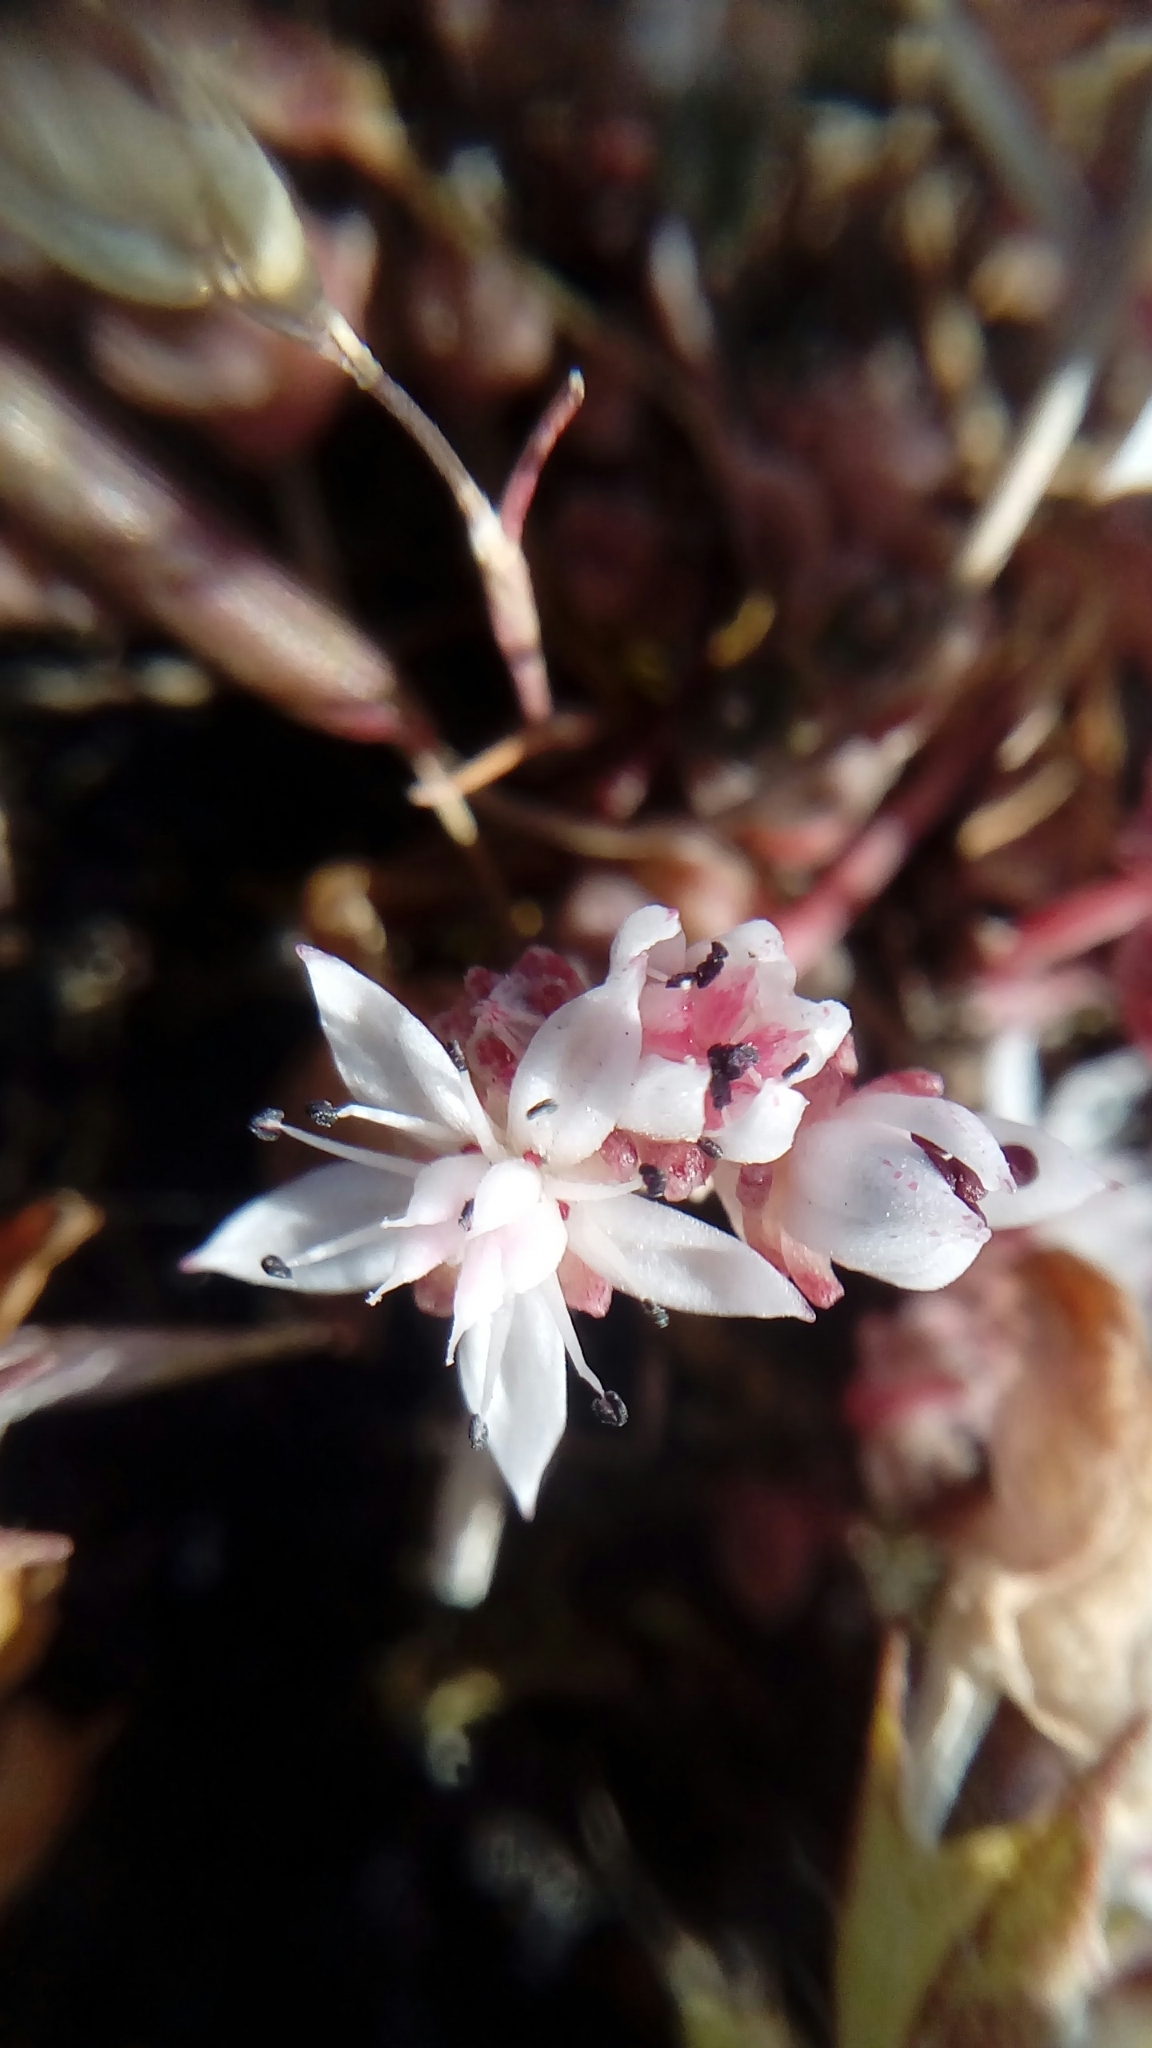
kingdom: Plantae
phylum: Tracheophyta
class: Magnoliopsida
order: Saxifragales
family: Crassulaceae
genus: Sedum
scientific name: Sedum anglicum
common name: English stonecrop
